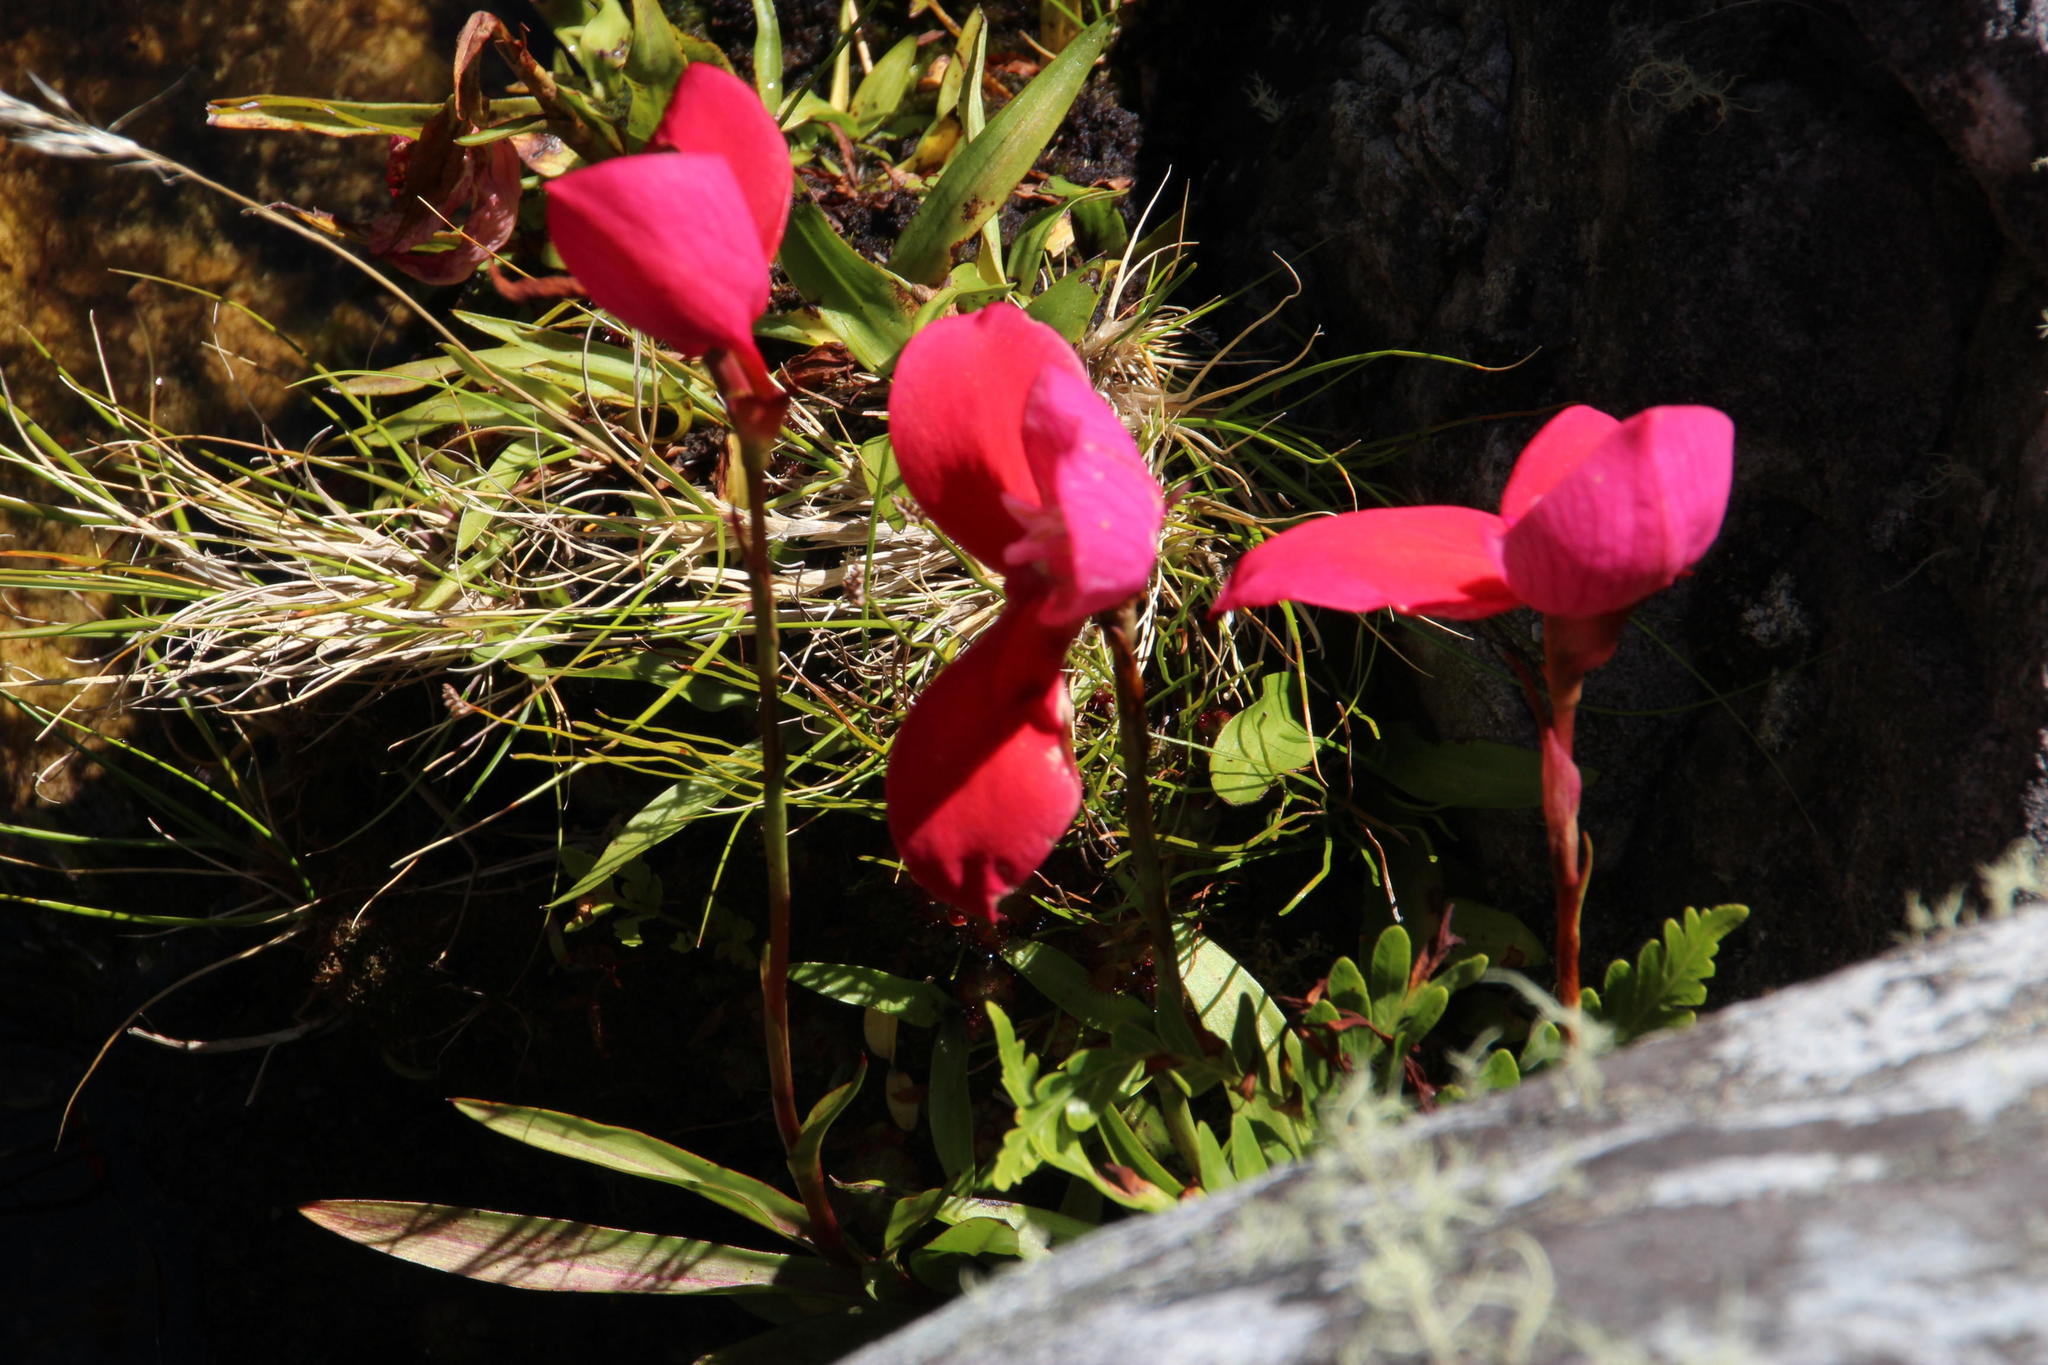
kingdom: Plantae
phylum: Tracheophyta
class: Liliopsida
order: Asparagales
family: Orchidaceae
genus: Disa
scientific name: Disa uniflora
